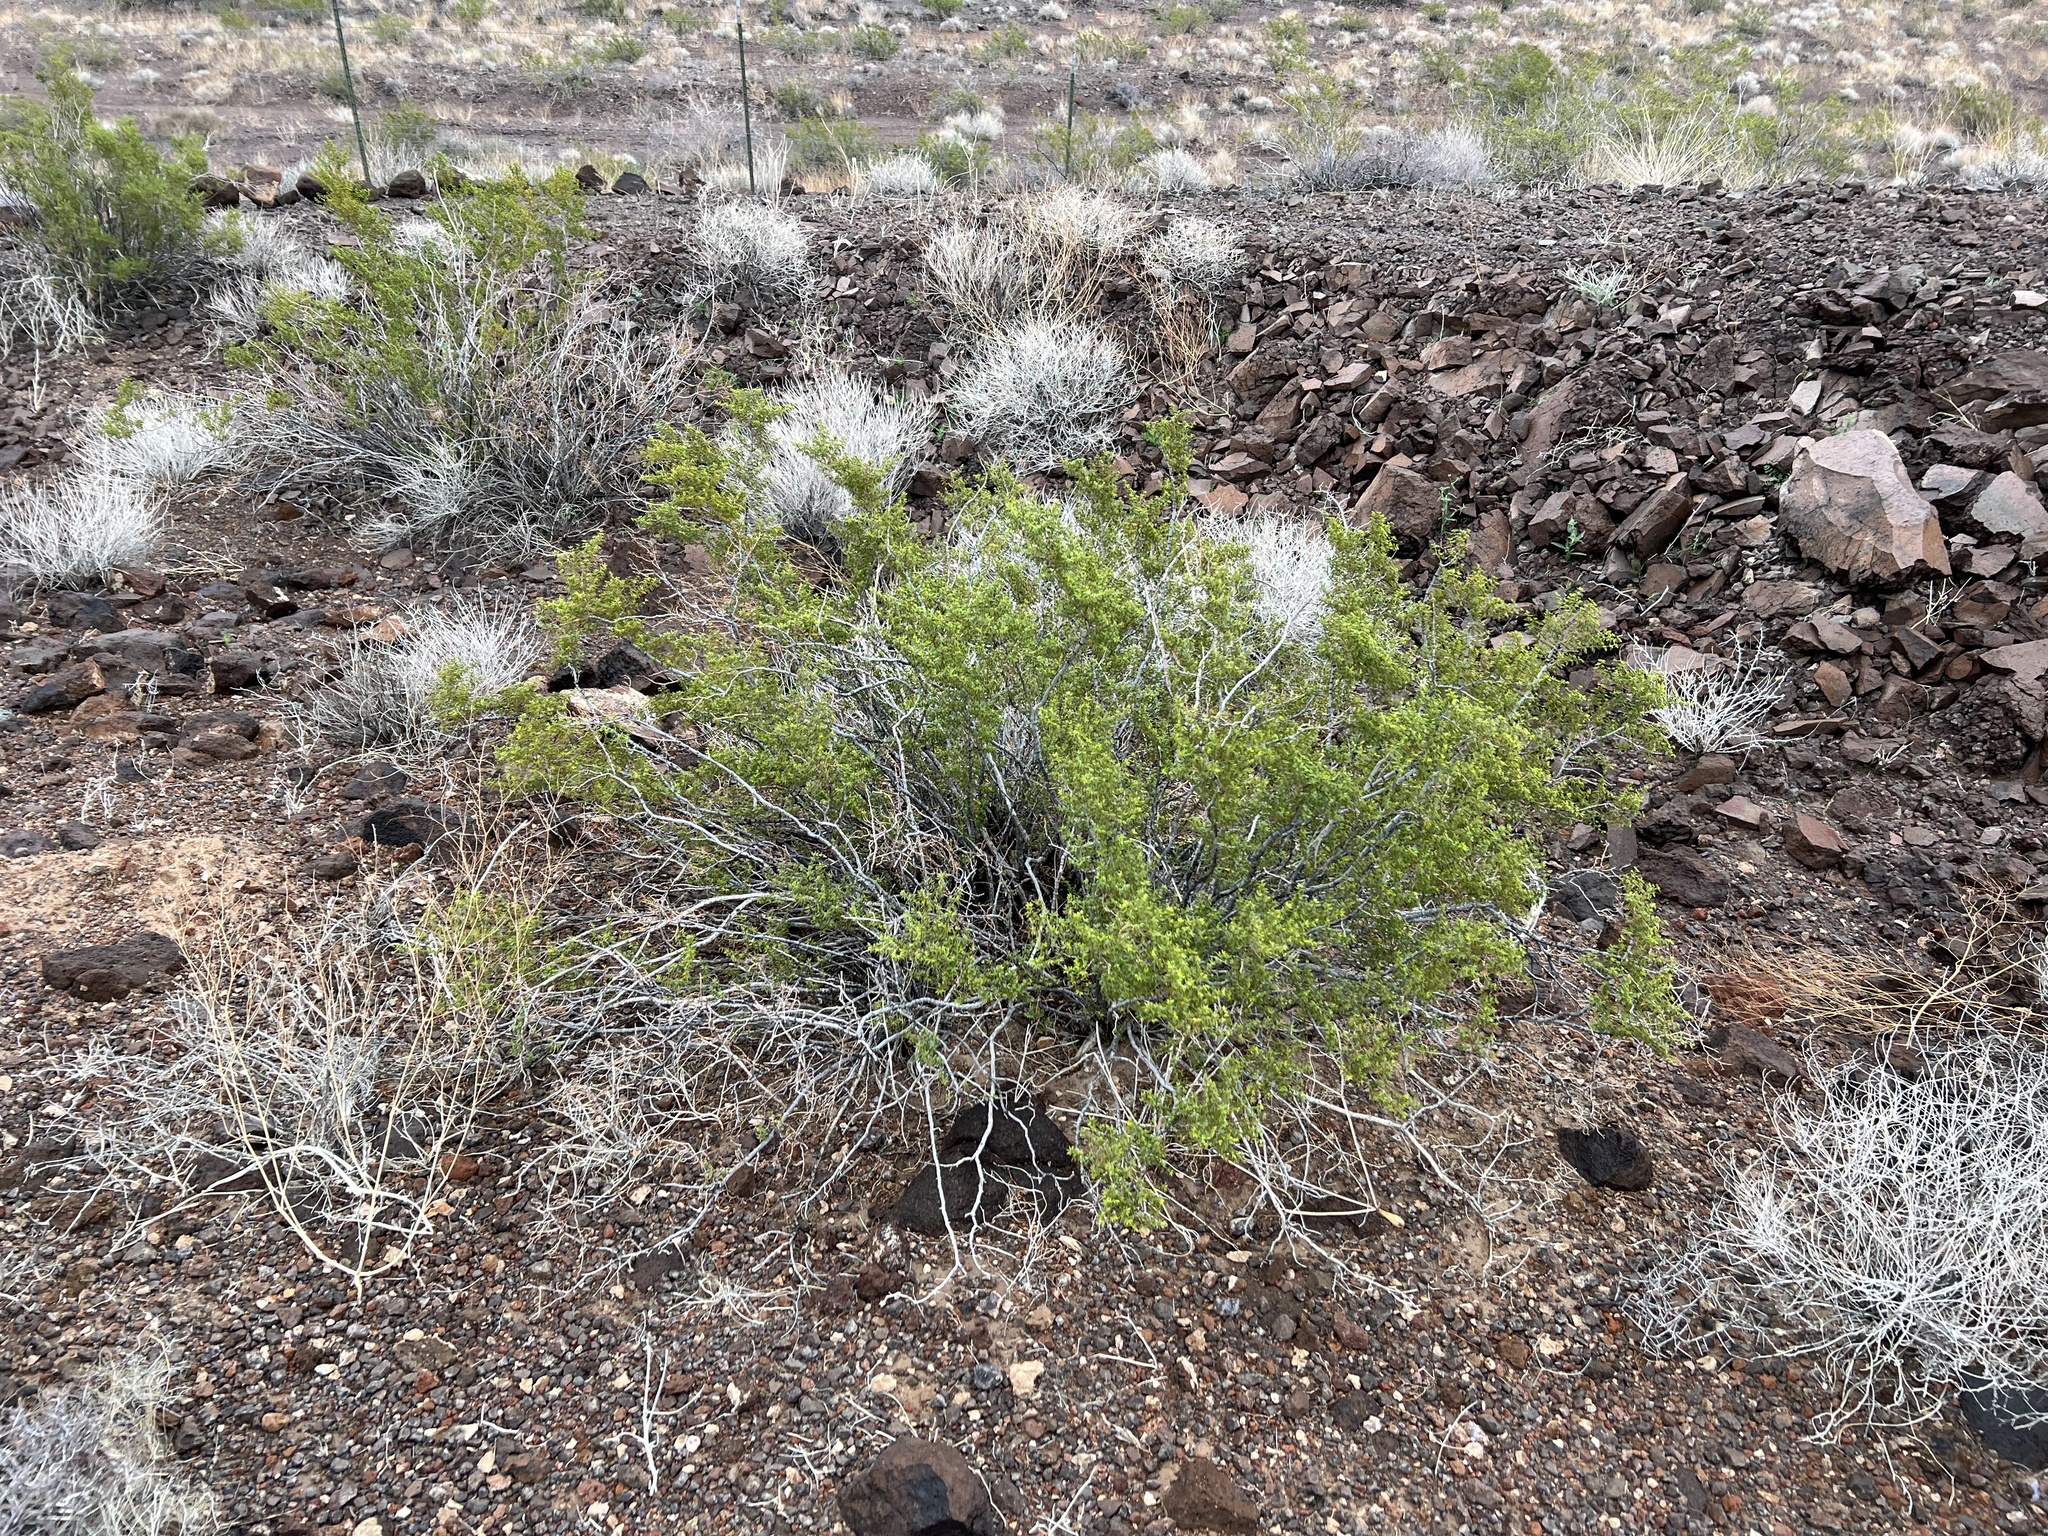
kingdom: Plantae
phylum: Tracheophyta
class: Magnoliopsida
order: Zygophyllales
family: Zygophyllaceae
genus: Larrea
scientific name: Larrea tridentata
